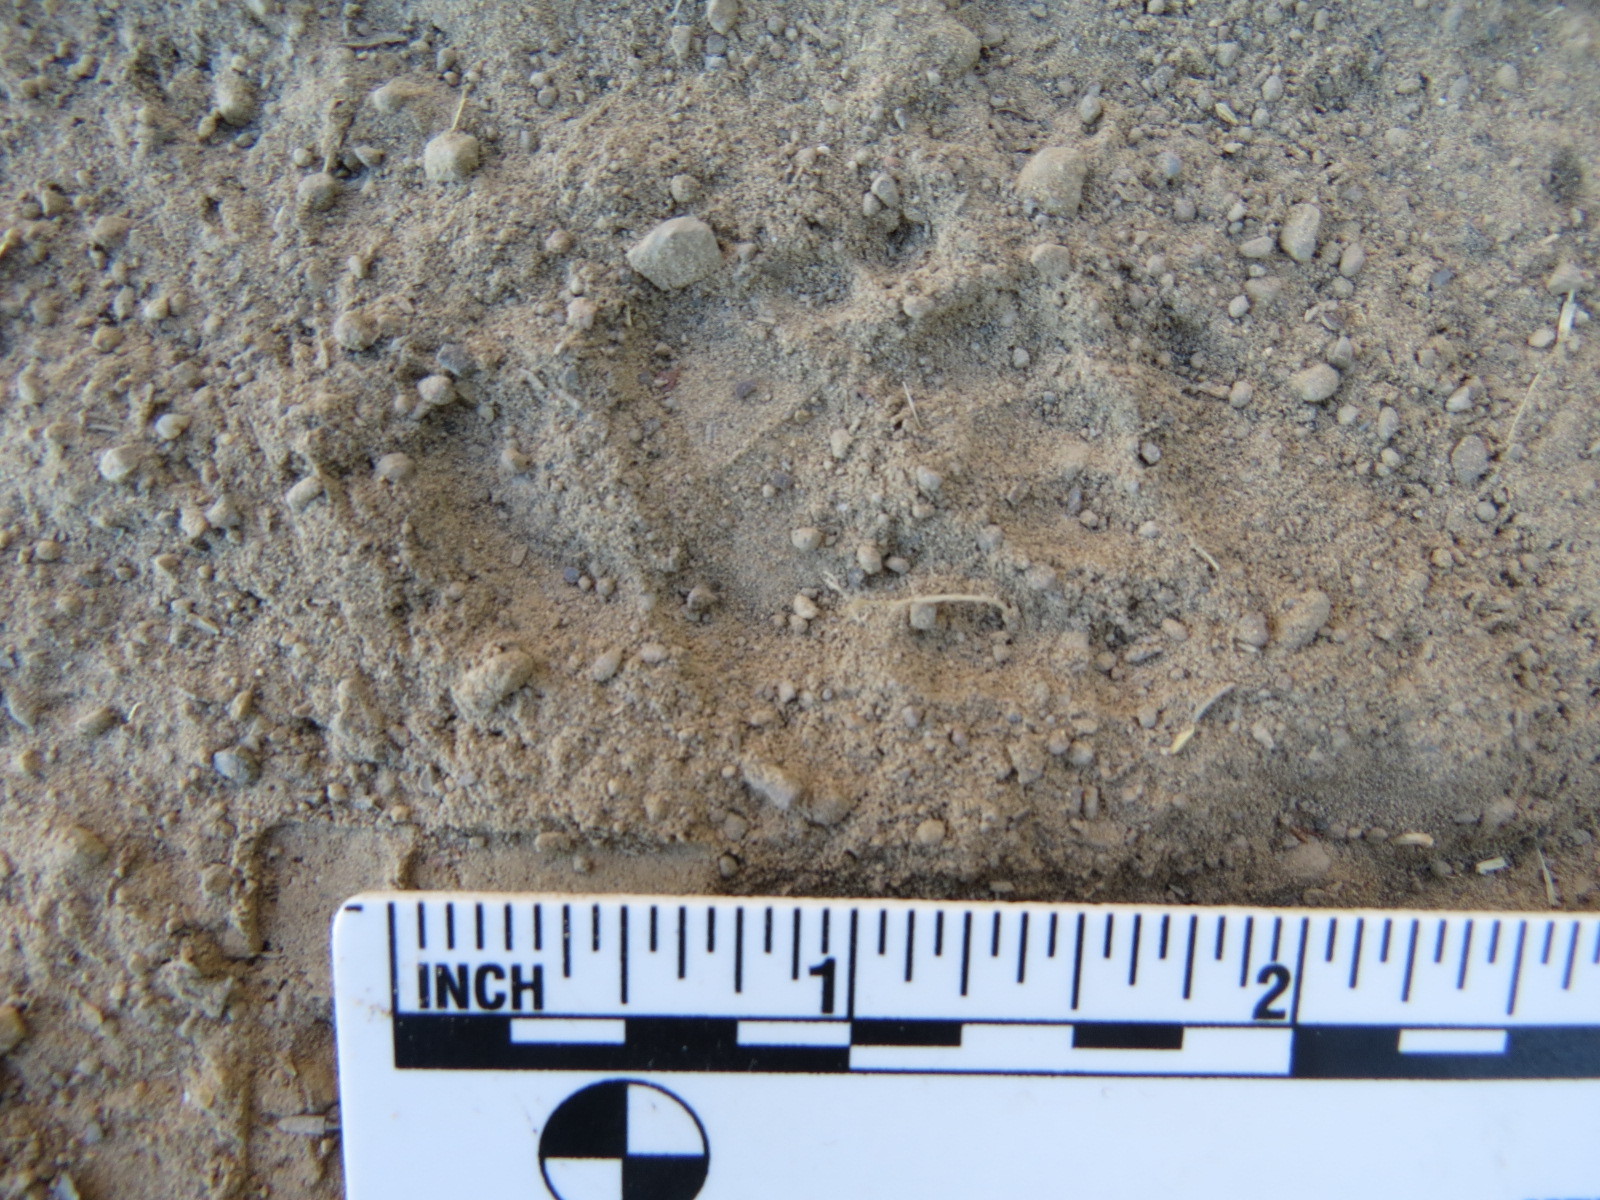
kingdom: Animalia
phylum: Chordata
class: Mammalia
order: Carnivora
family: Mephitidae
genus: Mephitis
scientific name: Mephitis mephitis
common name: Striped skunk
